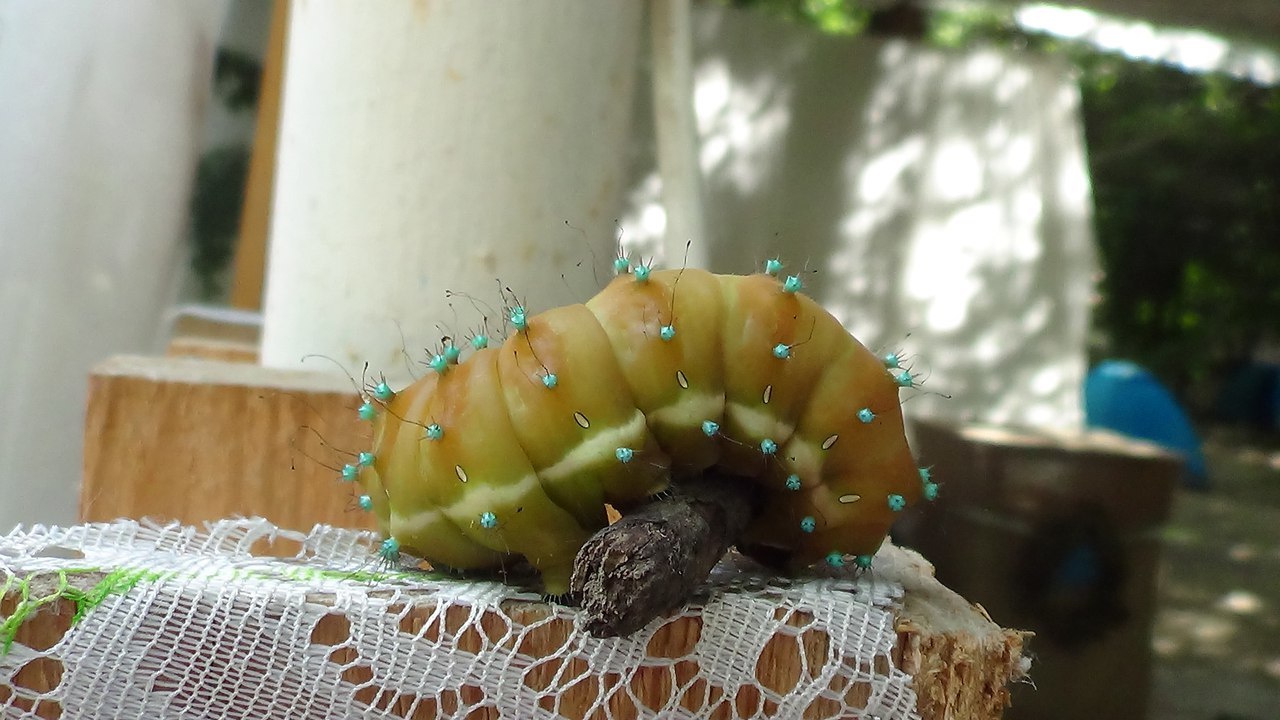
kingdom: Animalia
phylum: Arthropoda
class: Insecta
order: Lepidoptera
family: Saturniidae
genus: Saturnia
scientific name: Saturnia pyri
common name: Great peacock moth
